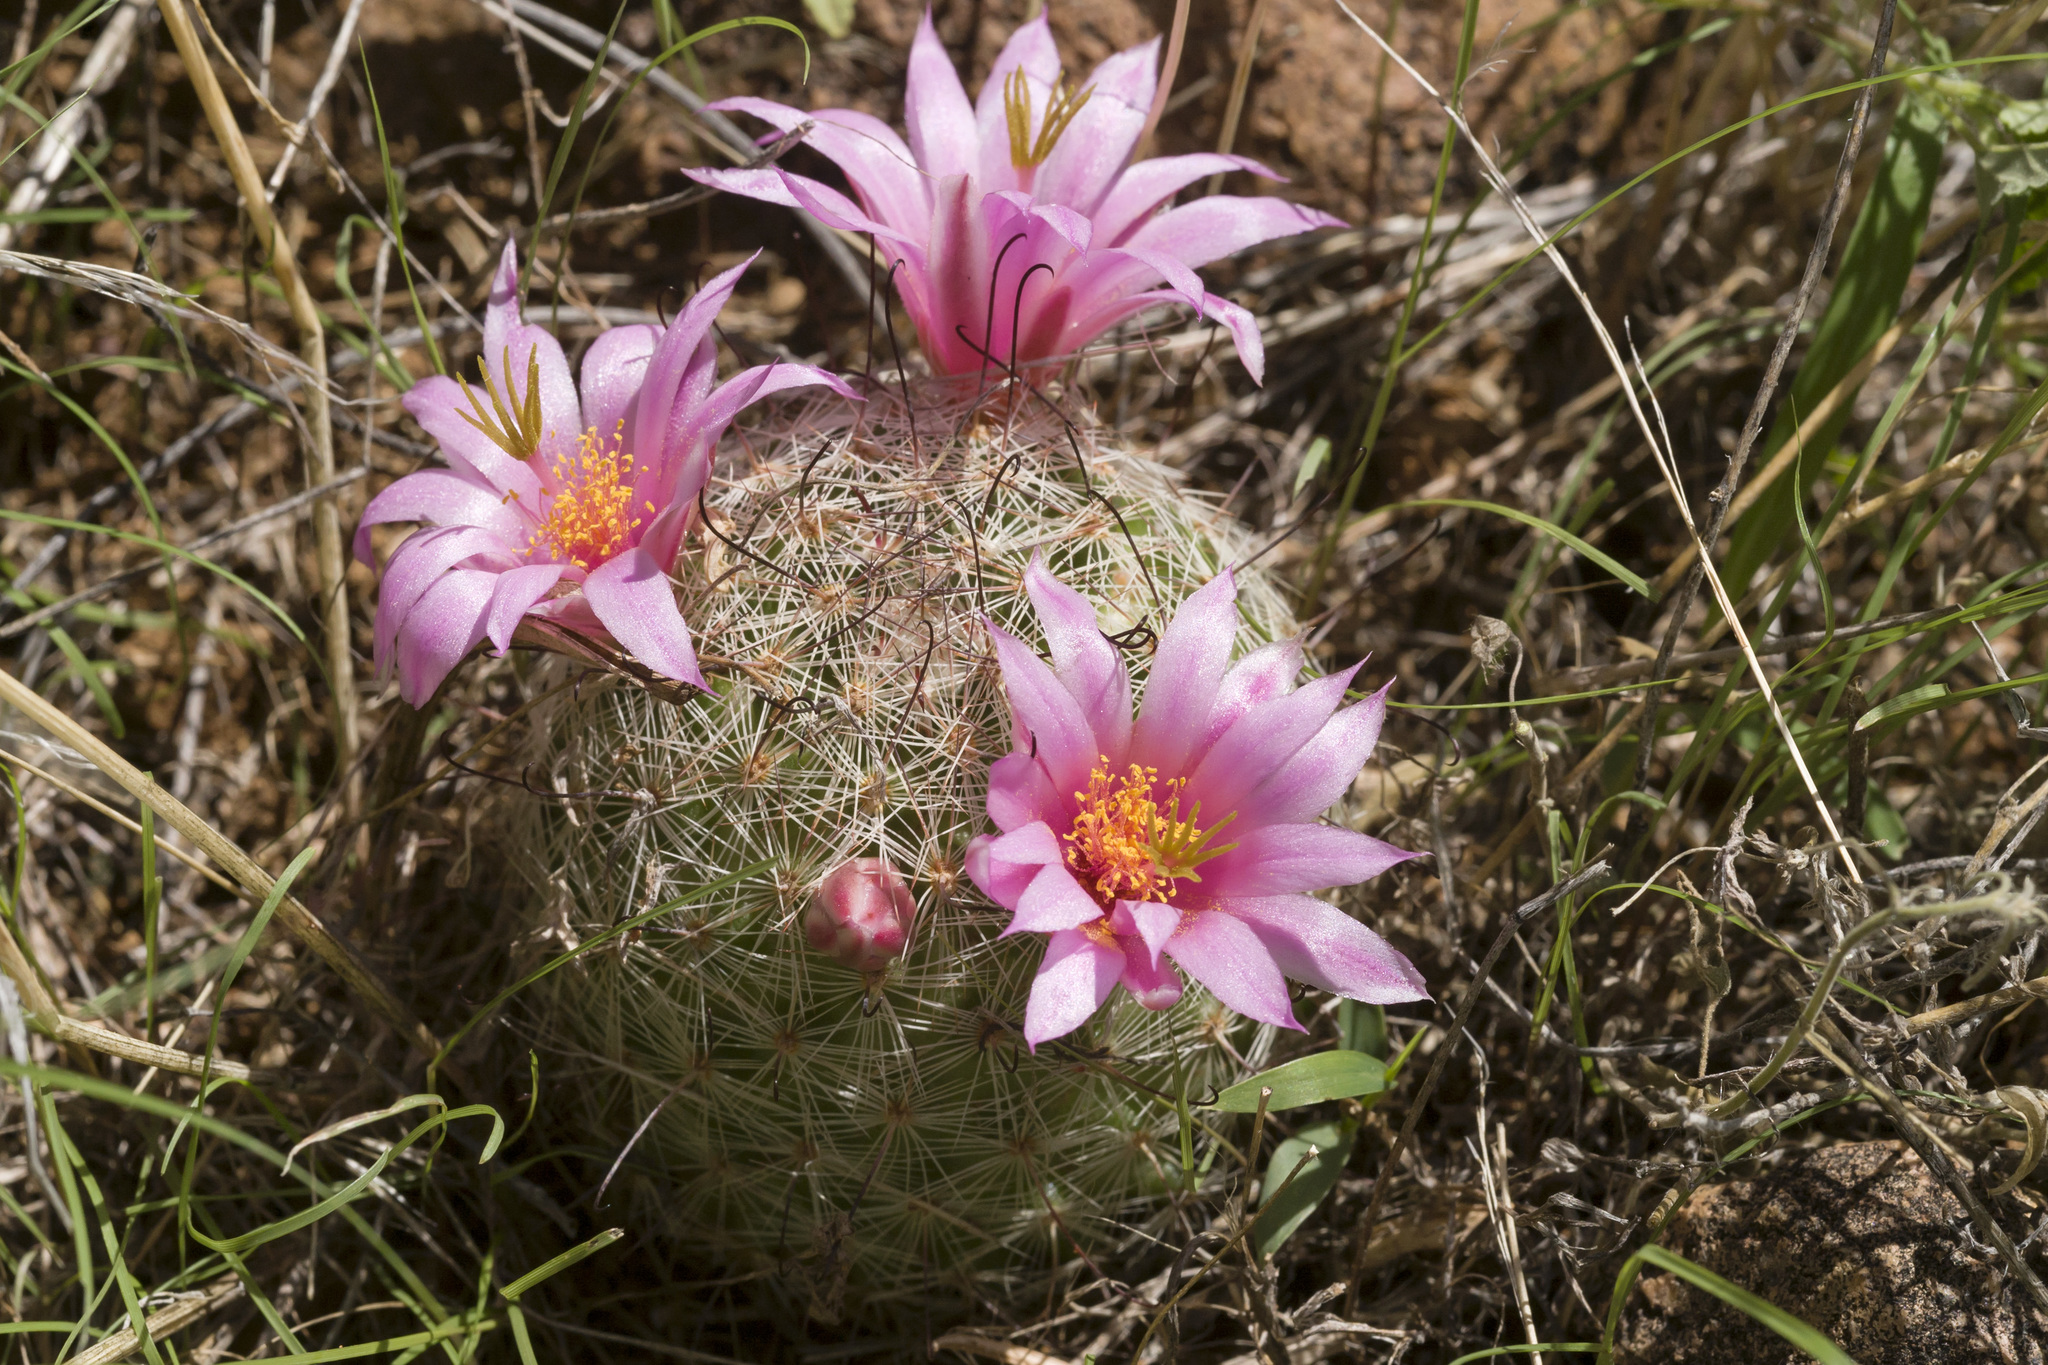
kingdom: Plantae
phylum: Tracheophyta
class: Magnoliopsida
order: Caryophyllales
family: Cactaceae
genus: Cochemiea
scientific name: Cochemiea grahamii
